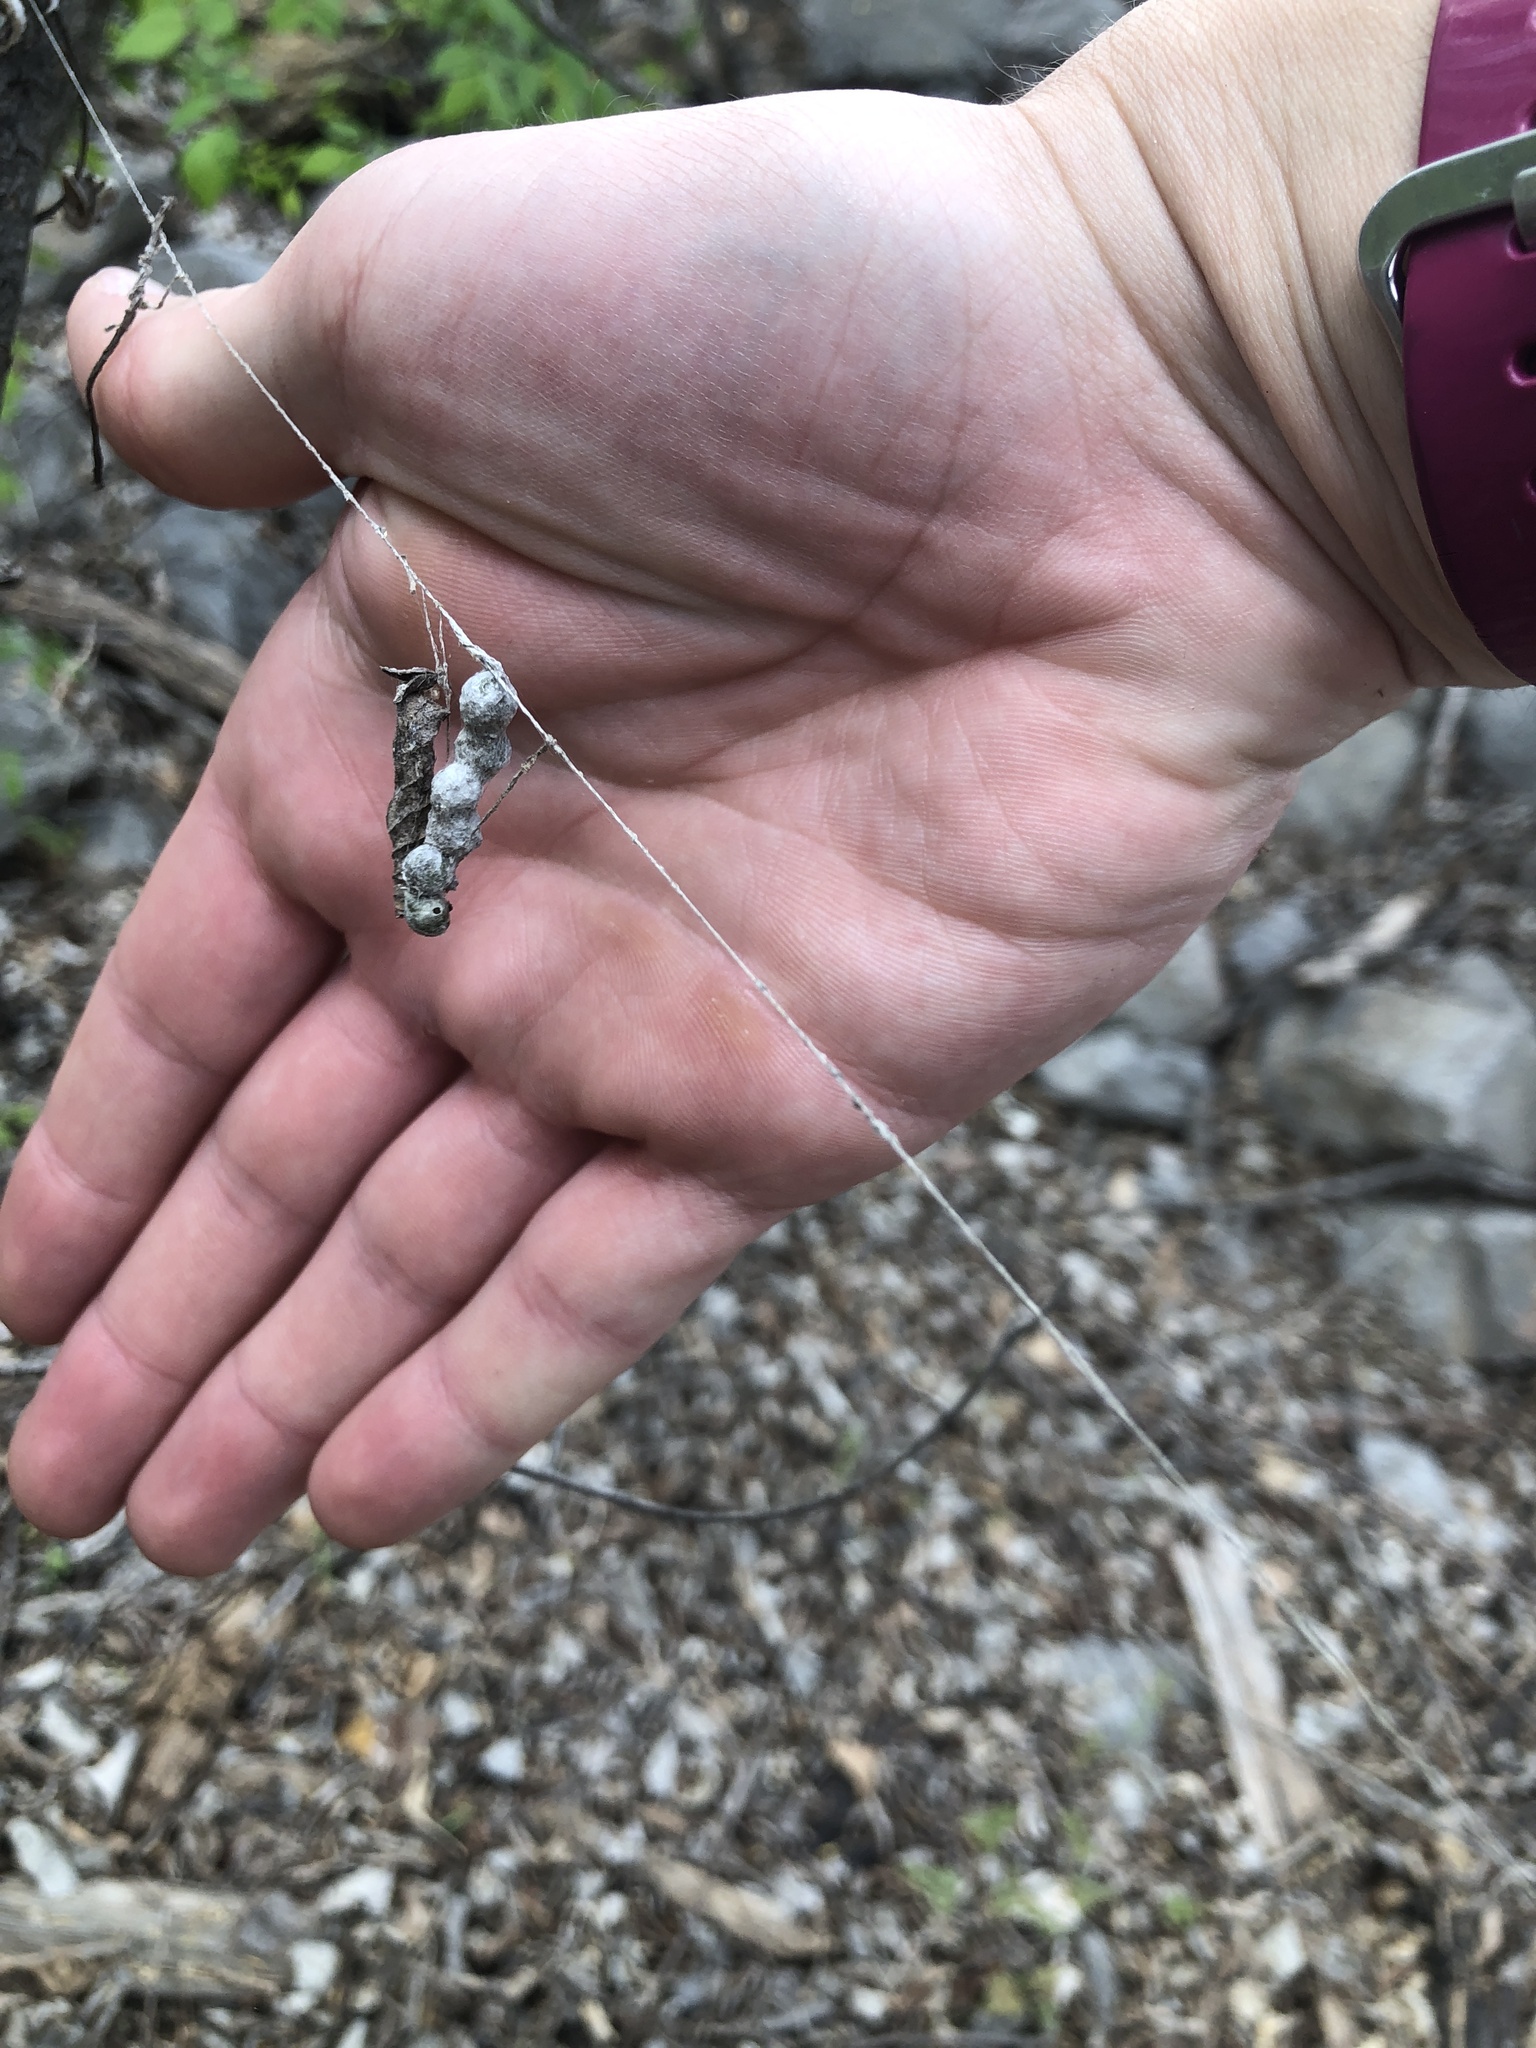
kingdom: Animalia
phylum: Arthropoda
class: Arachnida
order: Araneae
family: Araneidae
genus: Mecynogea
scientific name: Mecynogea lemniscata
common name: Orb weavers
